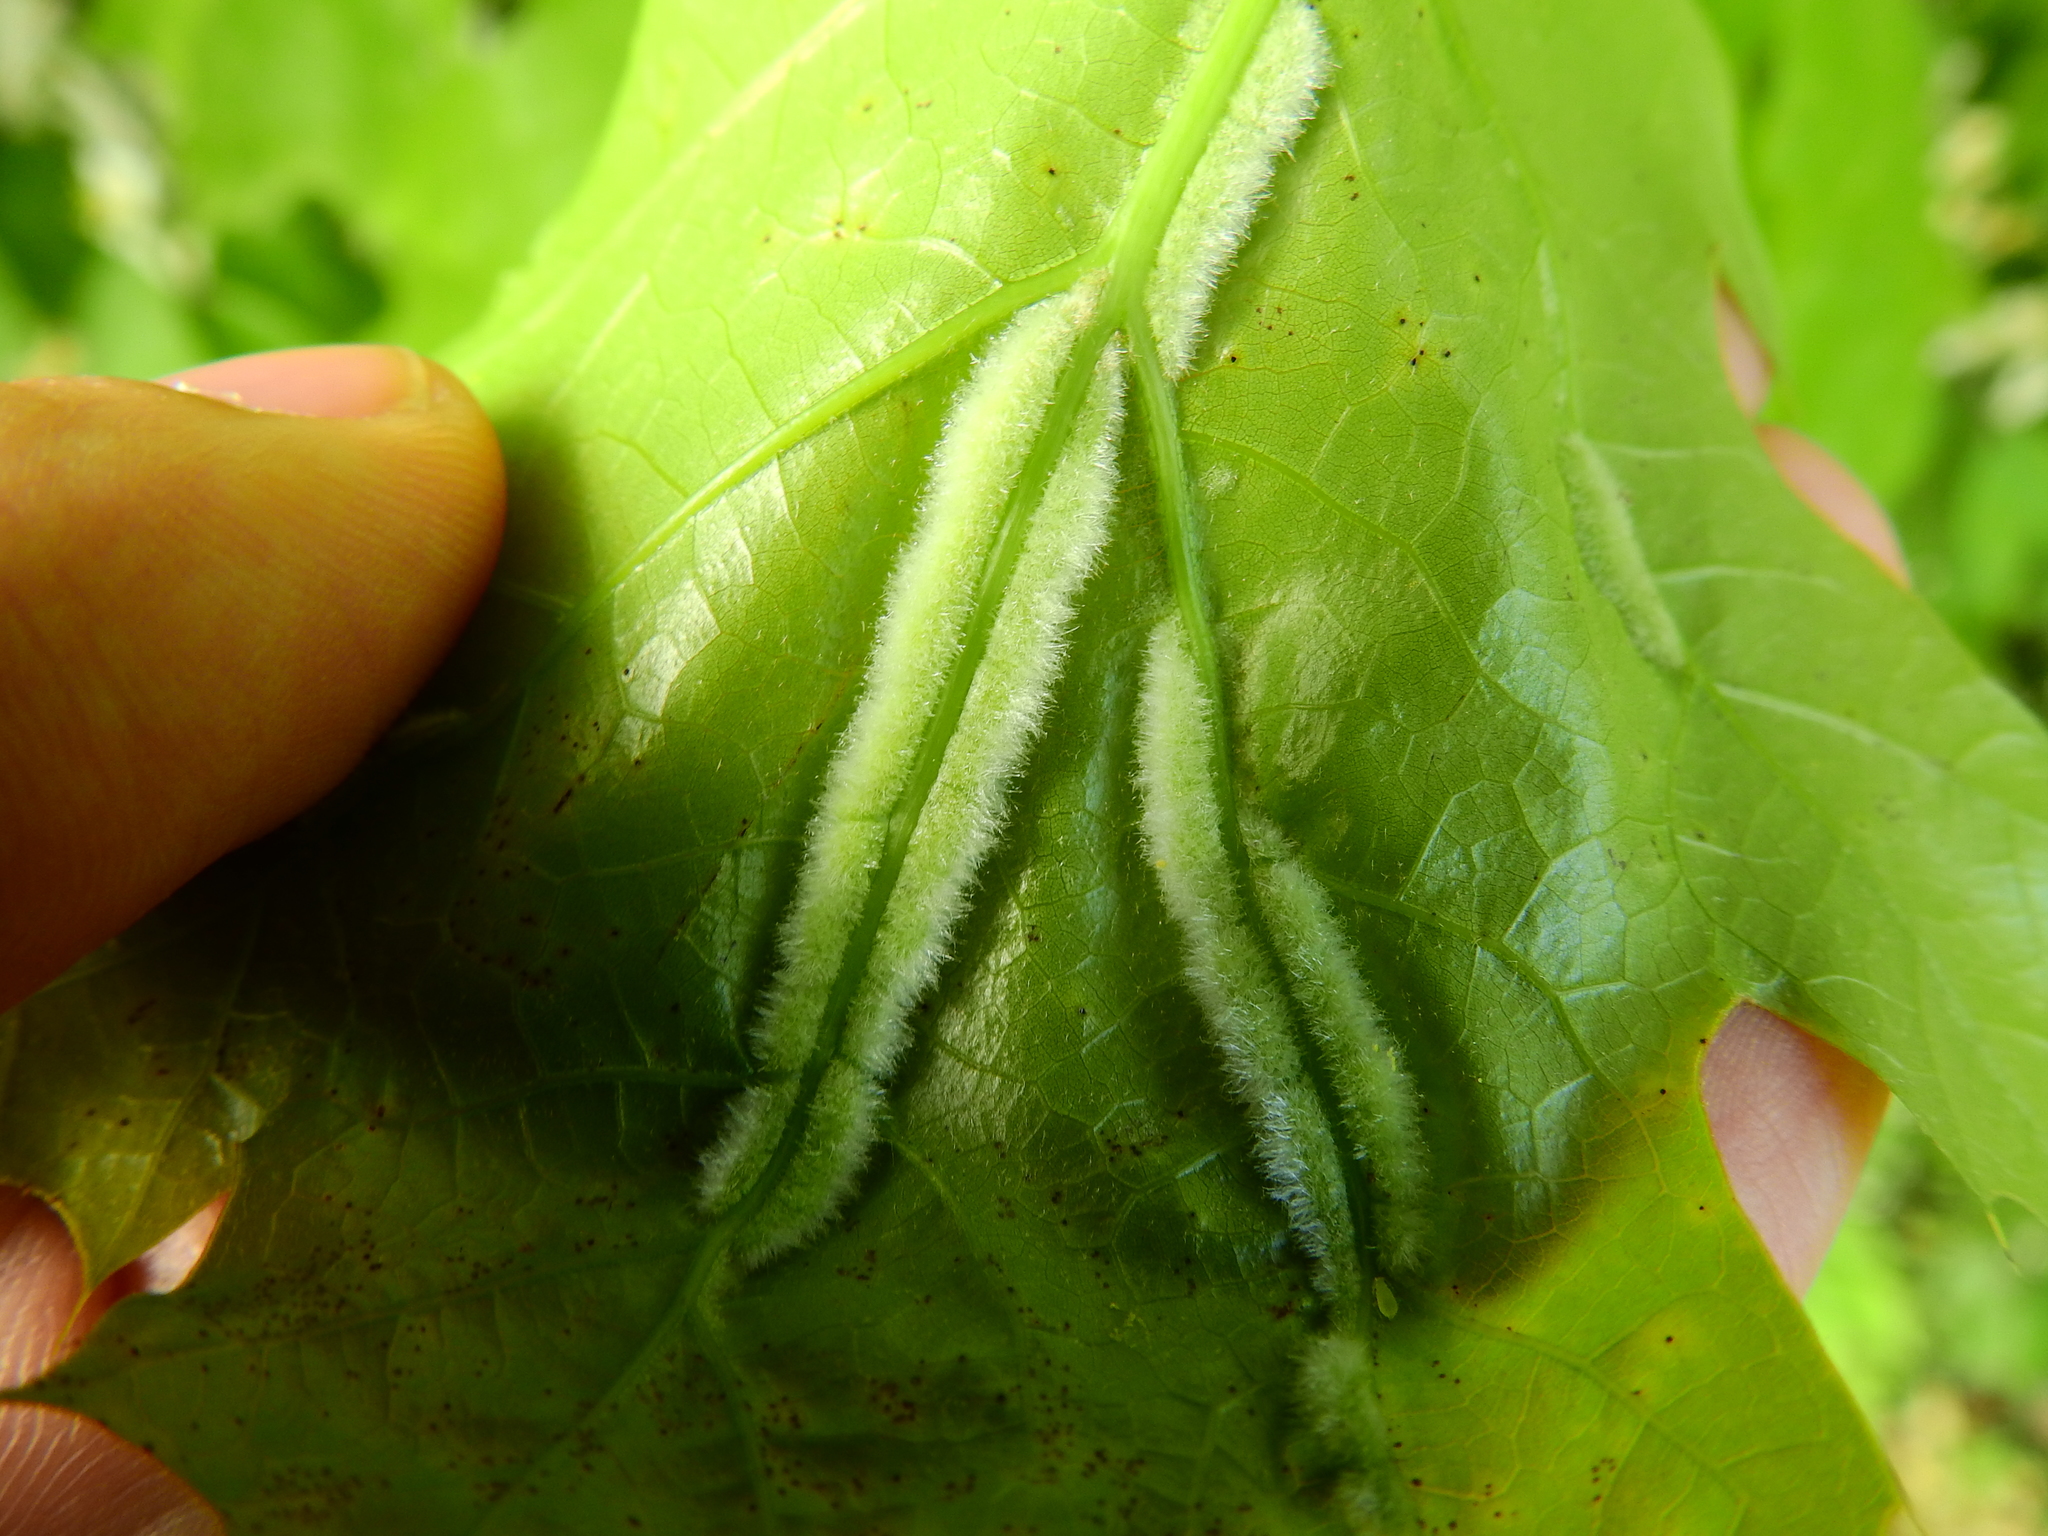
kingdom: Animalia
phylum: Arthropoda
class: Insecta
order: Diptera
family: Cecidomyiidae
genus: Macrodiplosis
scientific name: Macrodiplosis niveipila
